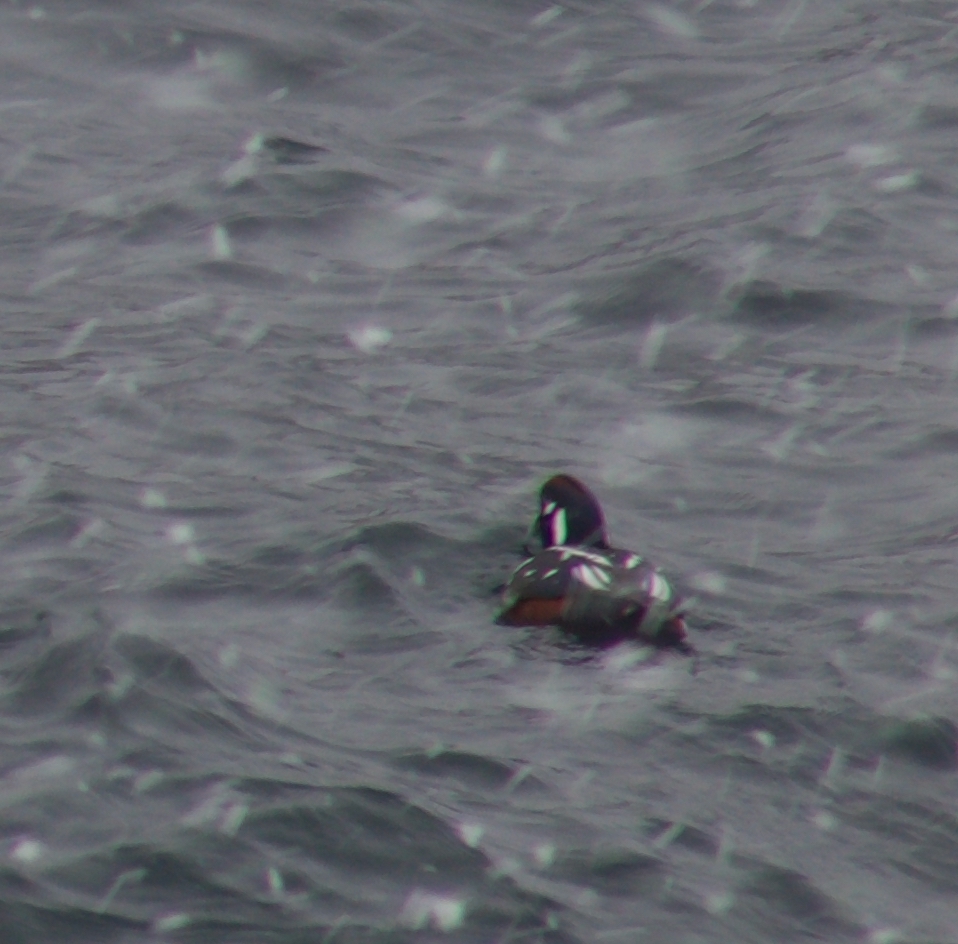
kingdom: Animalia
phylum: Chordata
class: Aves
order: Anseriformes
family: Anatidae
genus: Histrionicus
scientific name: Histrionicus histrionicus
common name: Harlequin duck
